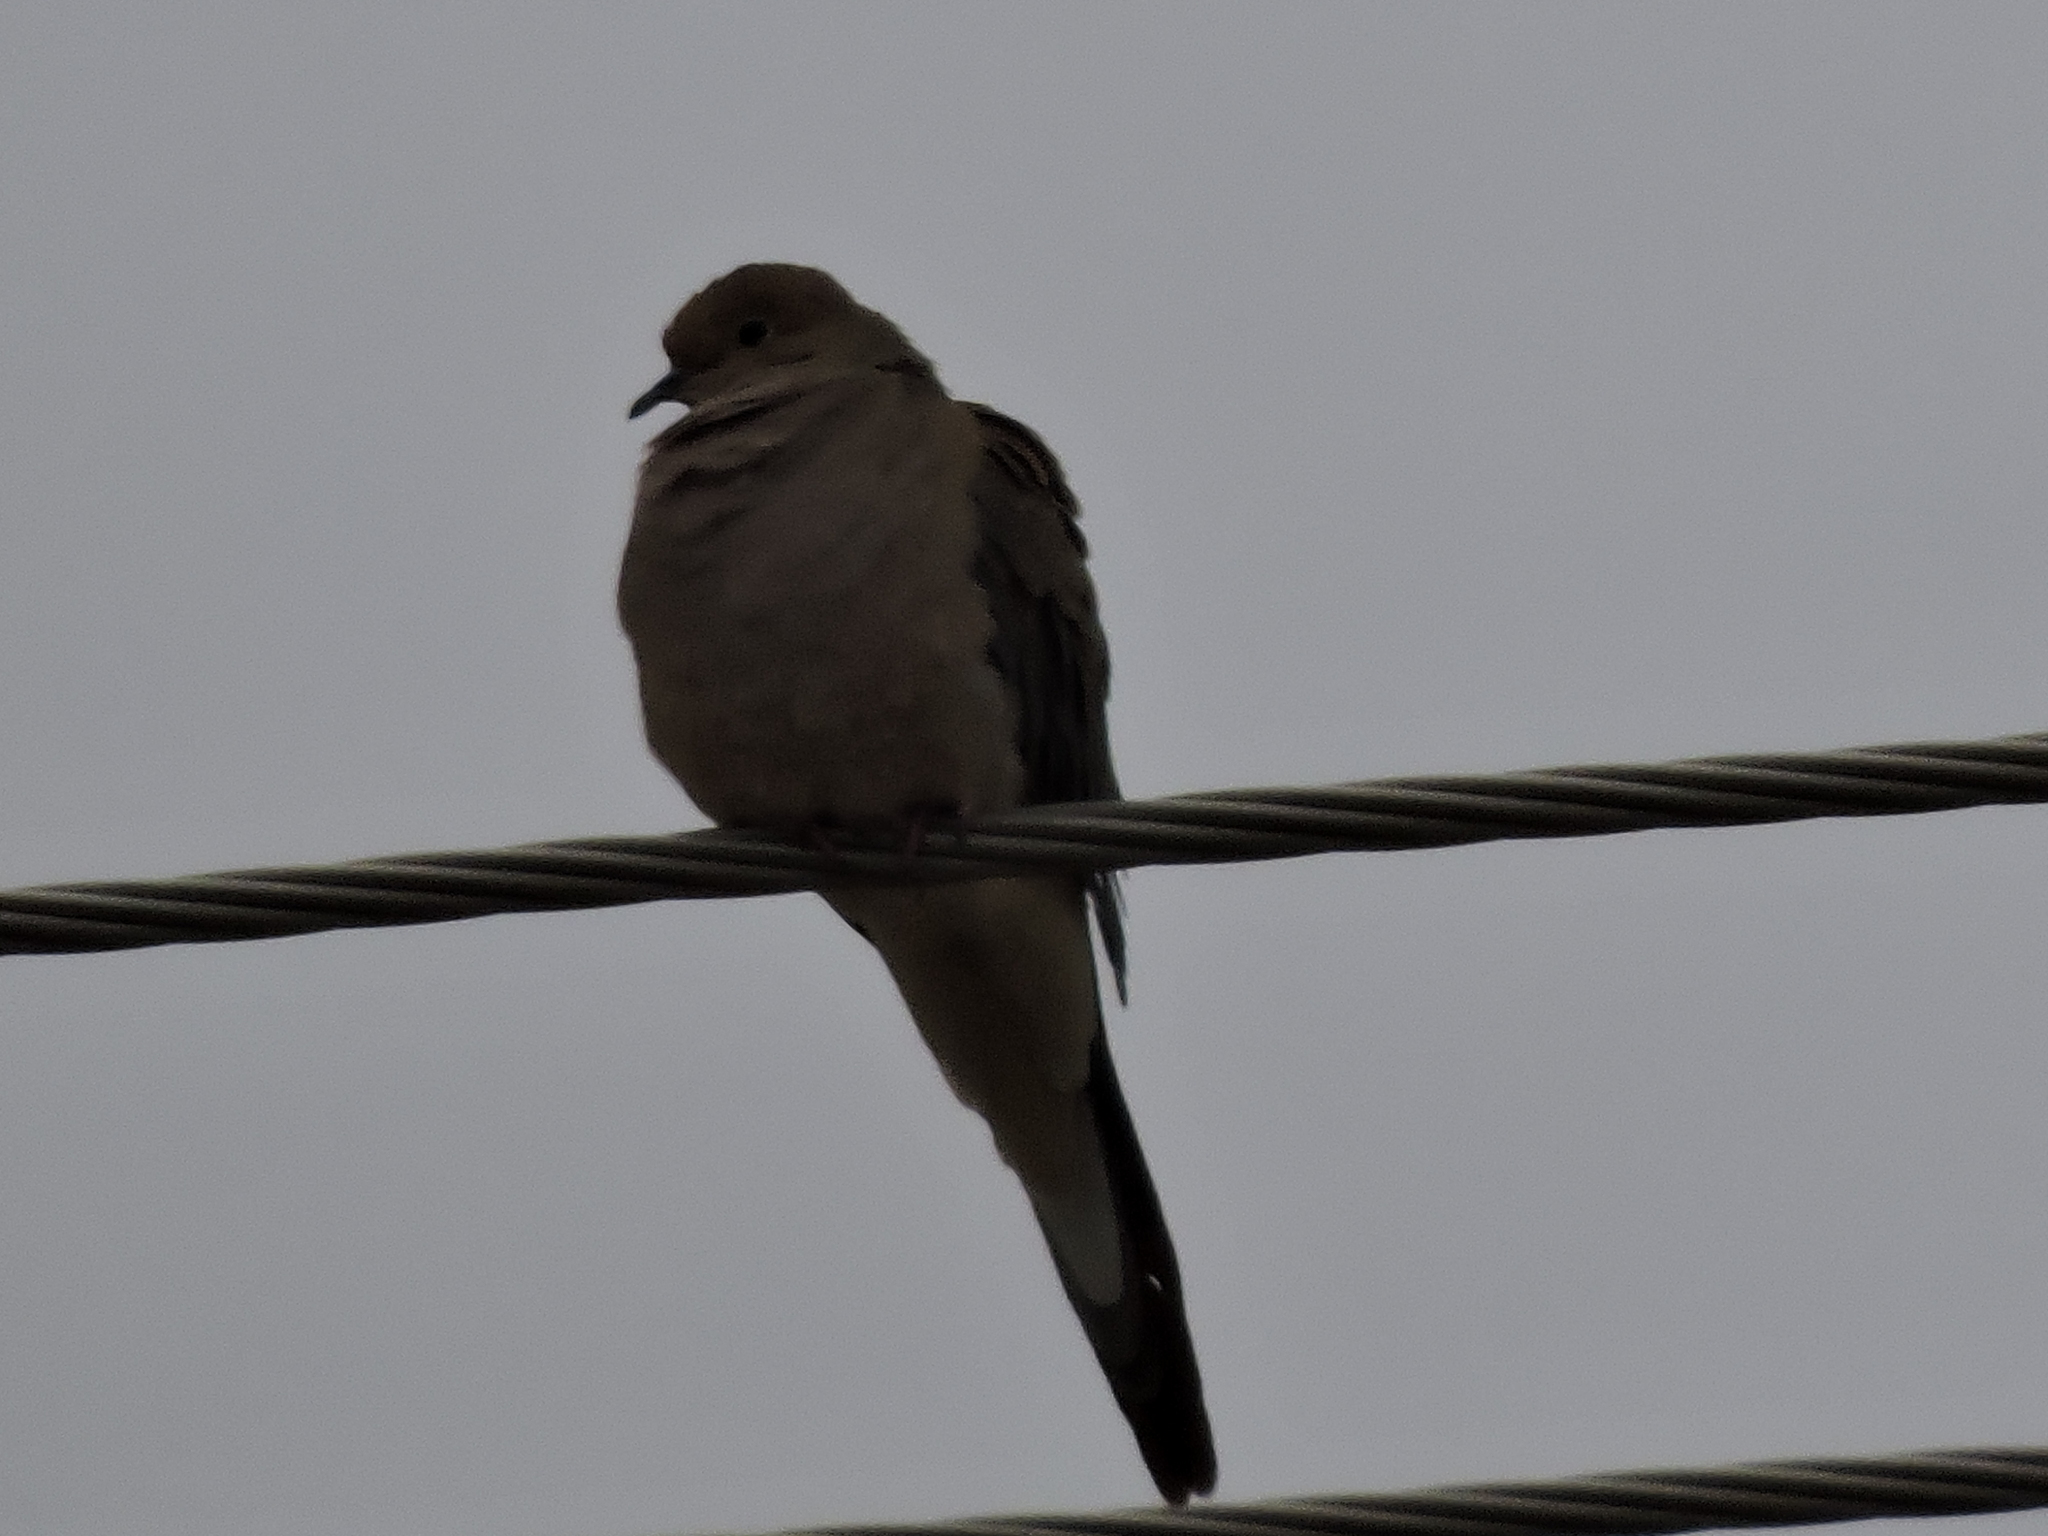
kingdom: Animalia
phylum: Chordata
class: Aves
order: Columbiformes
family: Columbidae
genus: Zenaida
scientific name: Zenaida macroura
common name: Mourning dove
